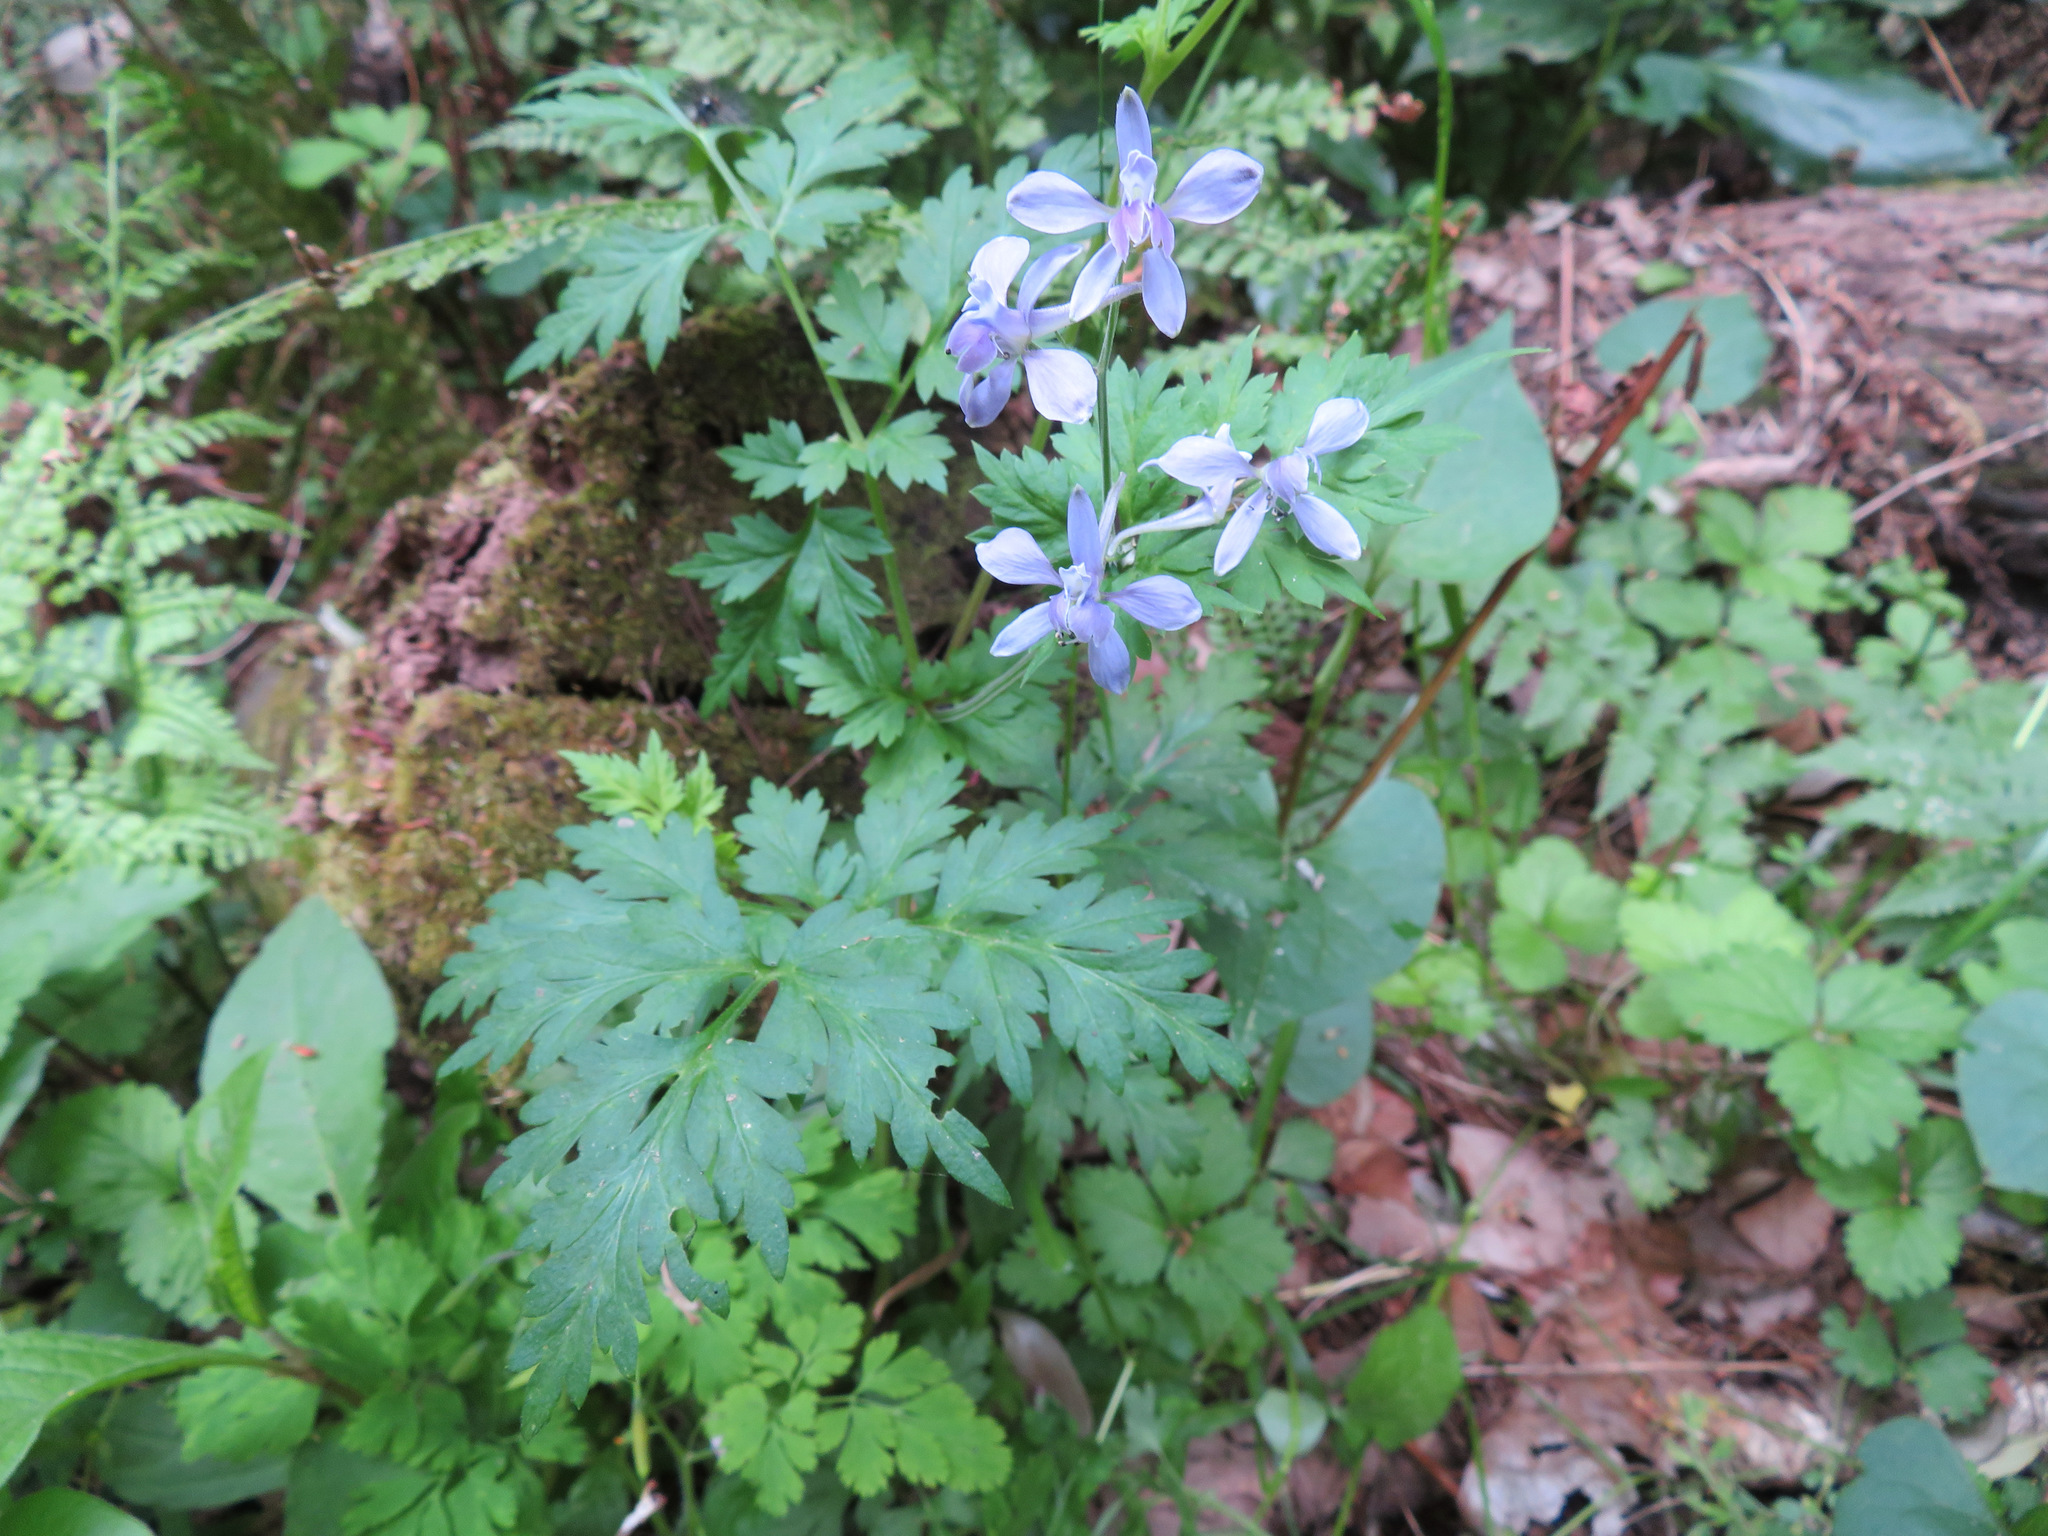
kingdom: Plantae
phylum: Tracheophyta
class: Magnoliopsida
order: Ranunculales
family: Ranunculaceae
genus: Delphinium
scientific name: Delphinium anthriscifolium
